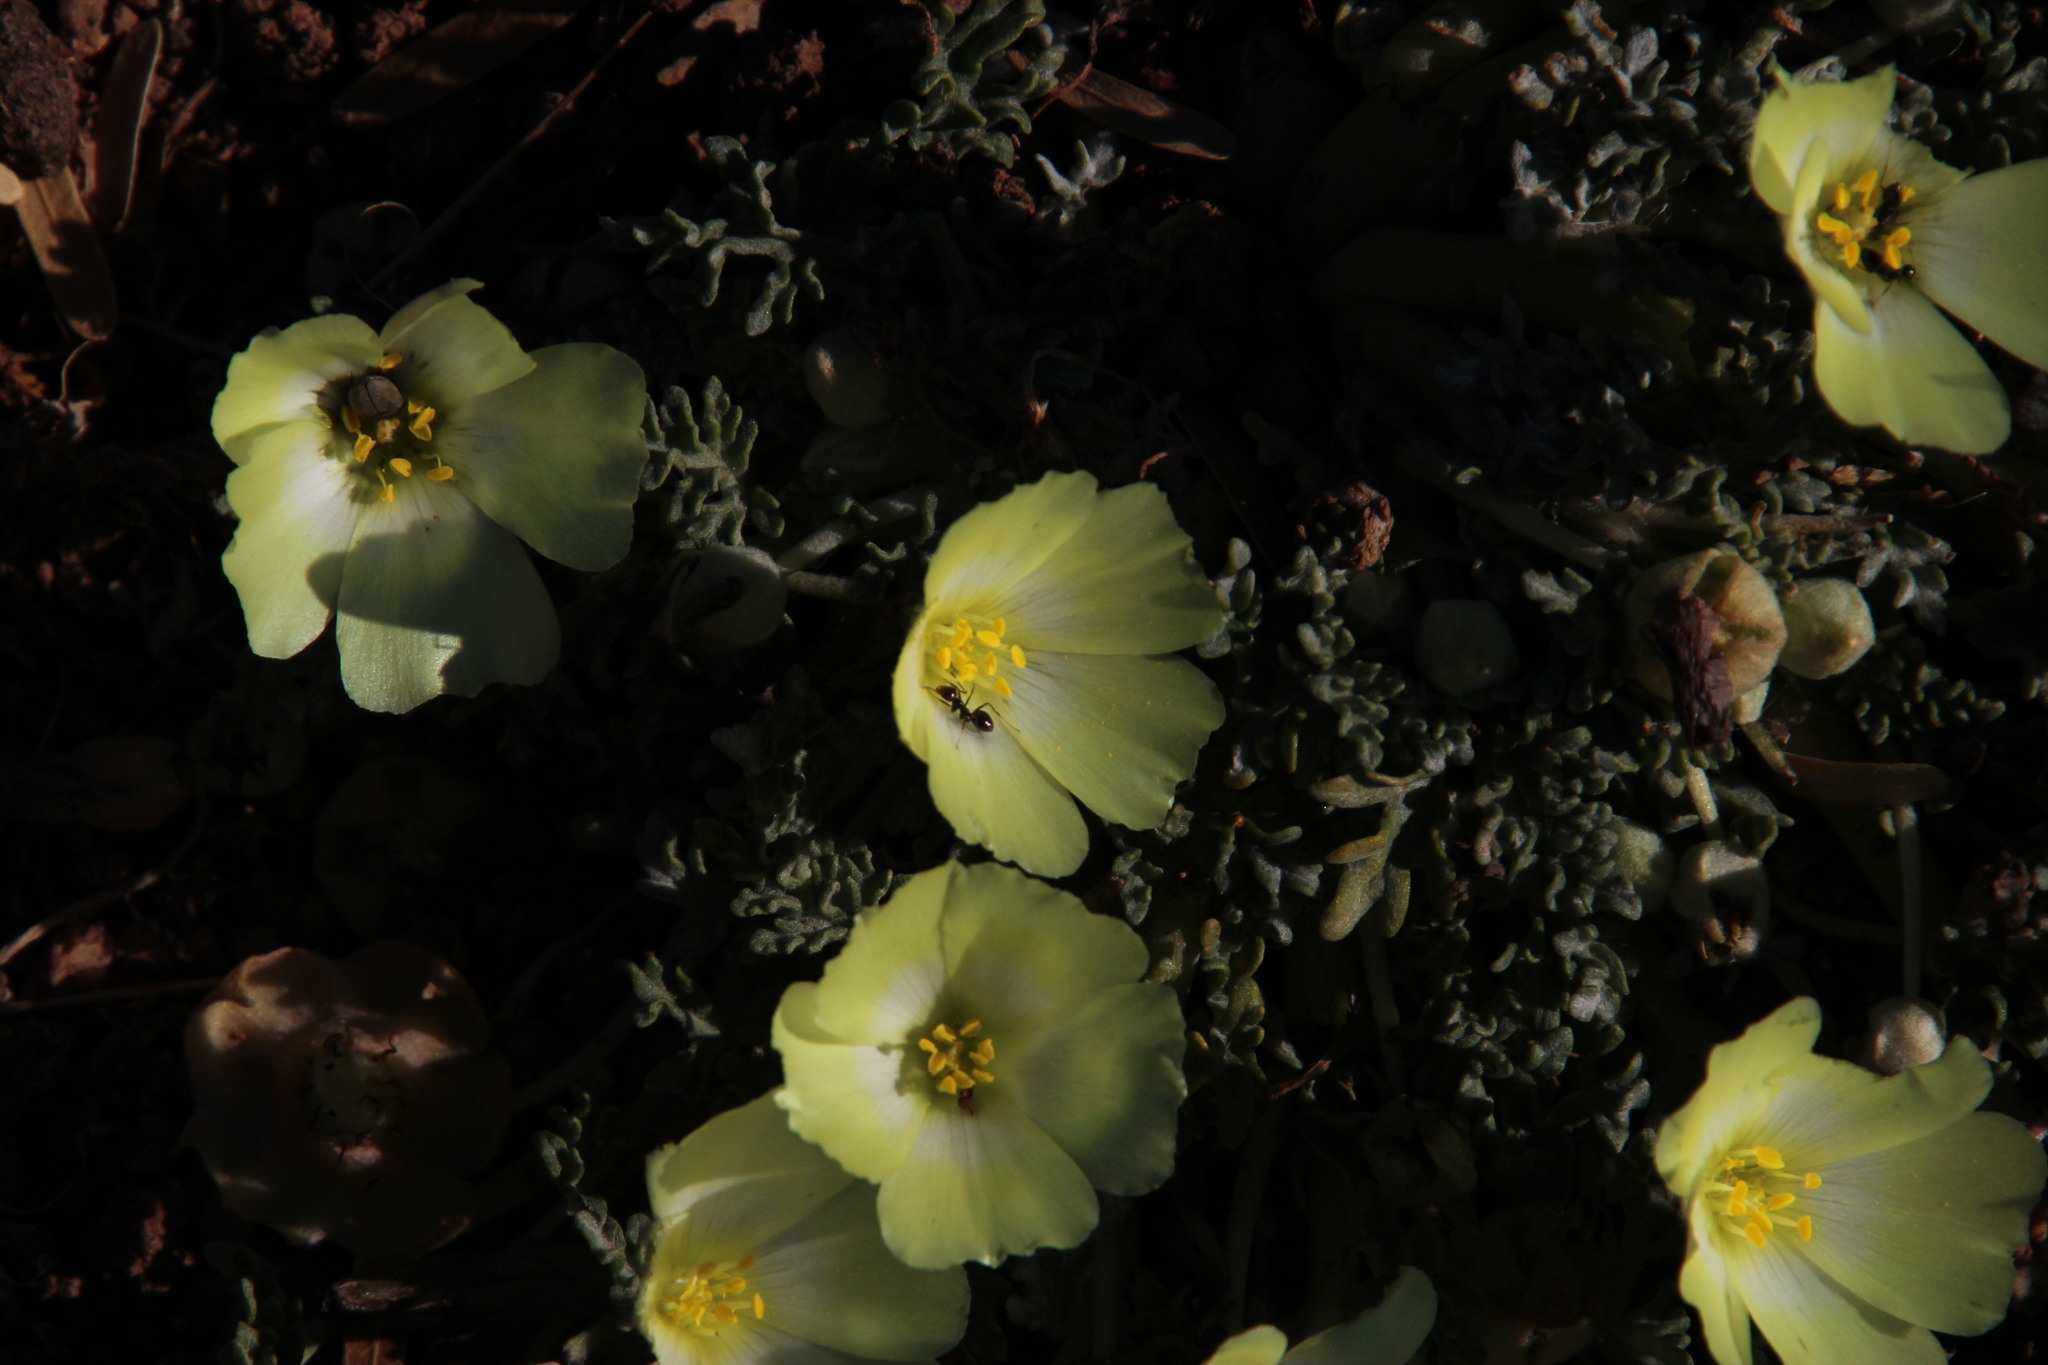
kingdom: Plantae
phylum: Tracheophyta
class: Magnoliopsida
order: Malvales
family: Neuradaceae
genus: Grielum
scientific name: Grielum humifusum
